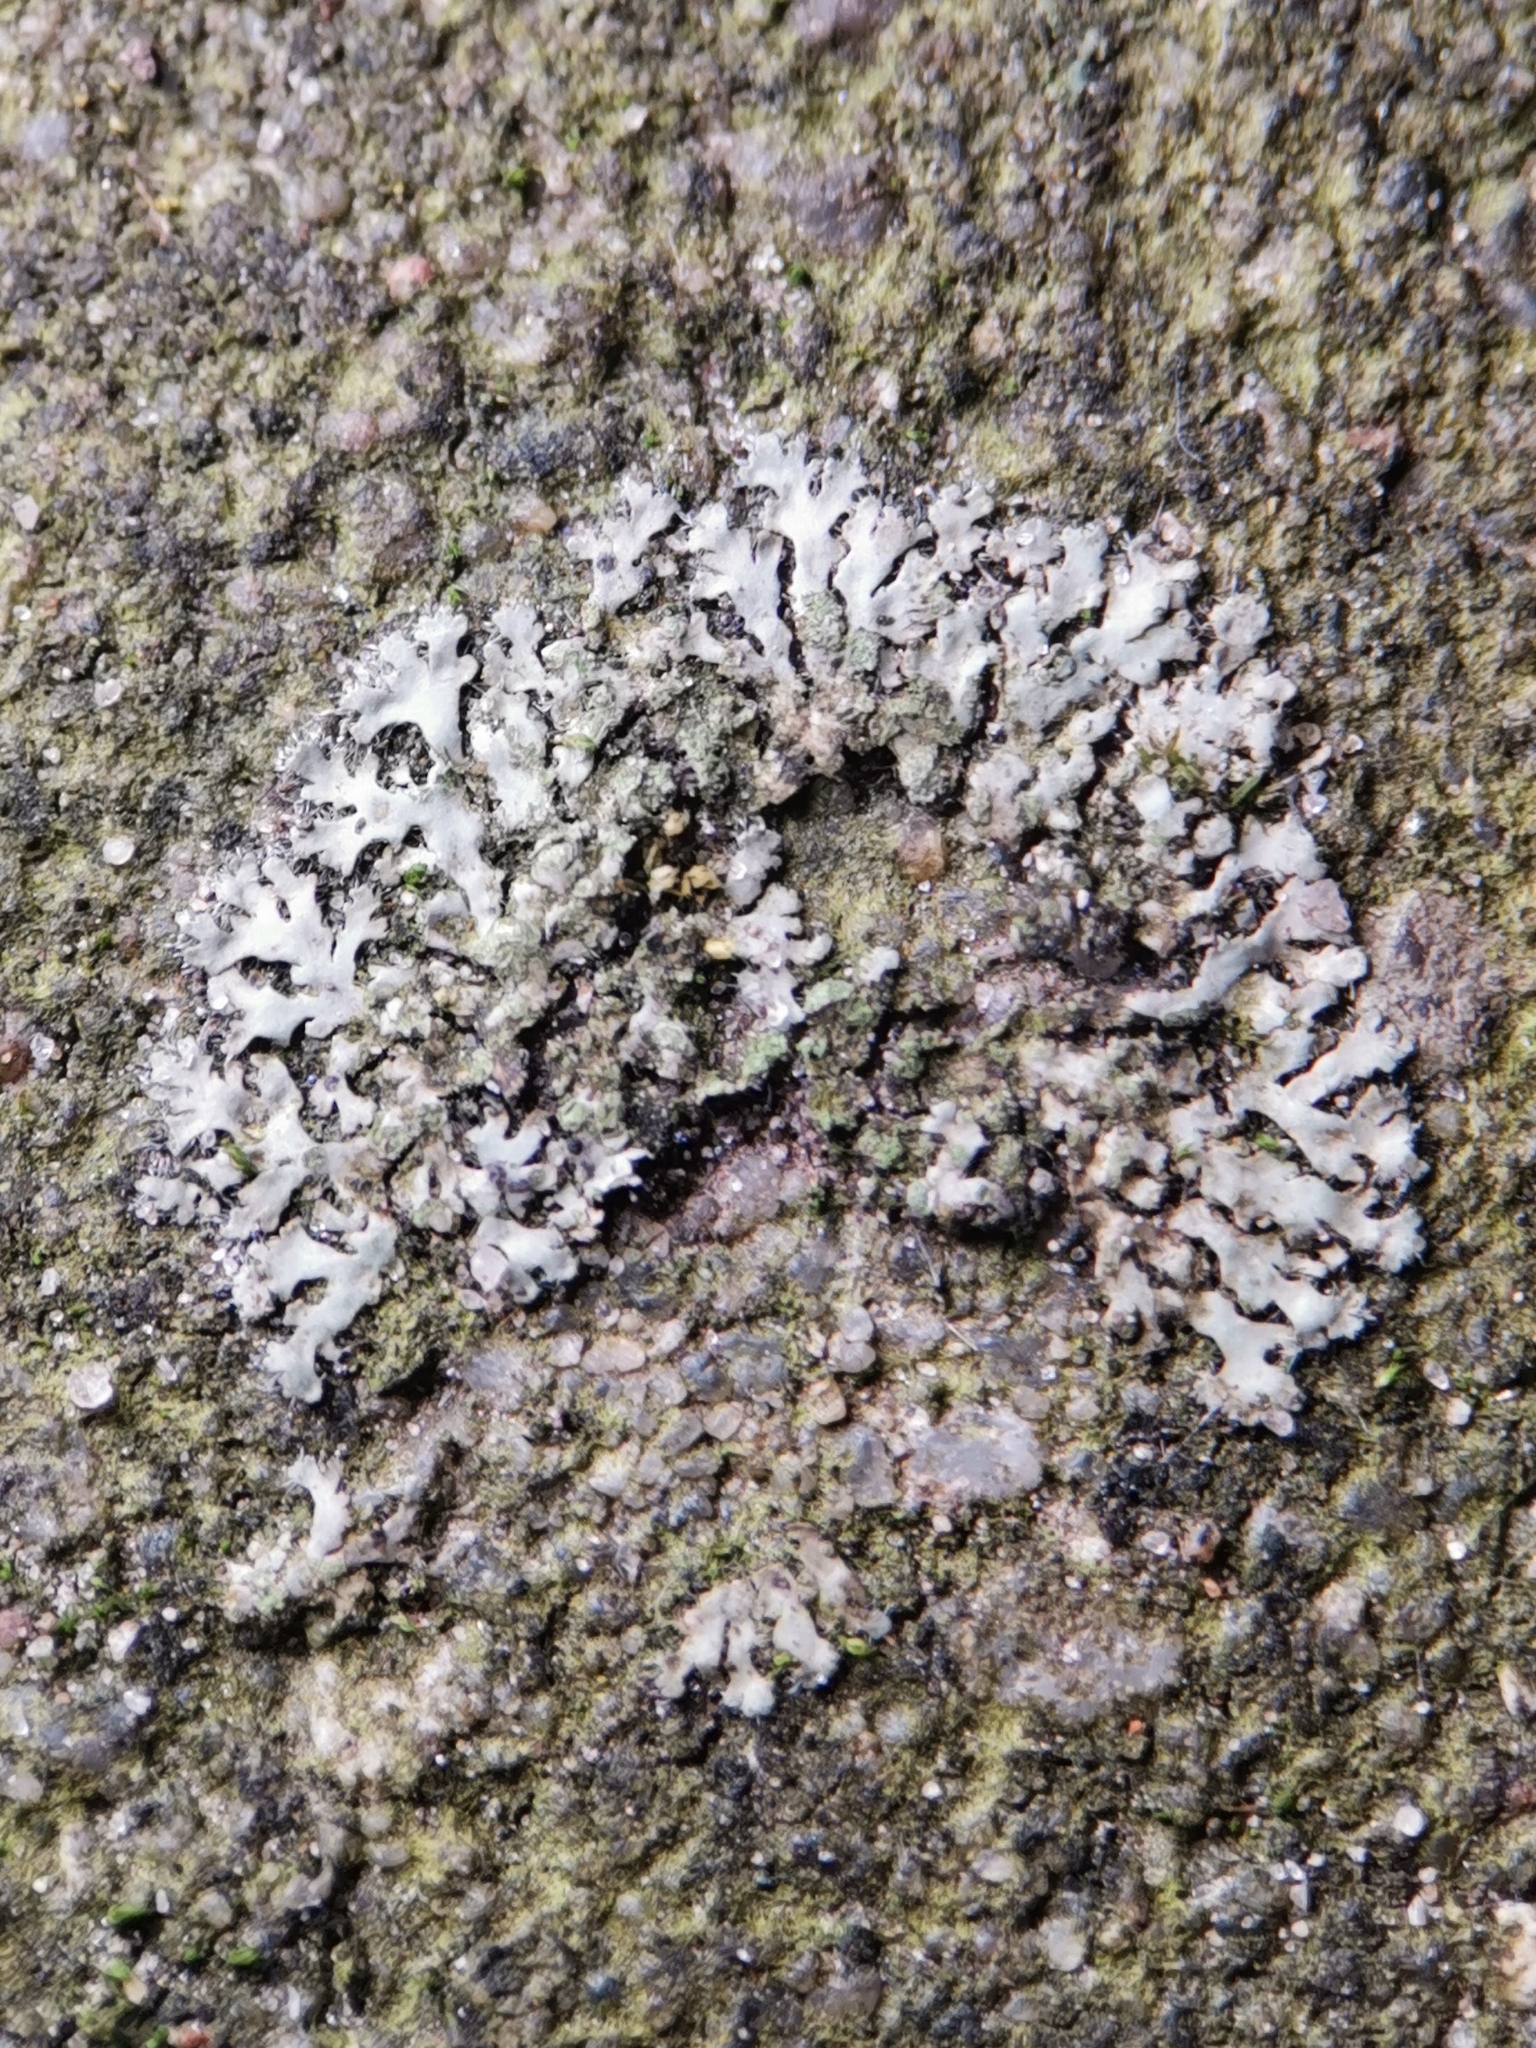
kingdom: Fungi
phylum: Ascomycota
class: Lecanoromycetes
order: Caliciales
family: Physciaceae
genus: Phaeophyscia
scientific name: Phaeophyscia orbicularis
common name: Mealy shadow lichen
